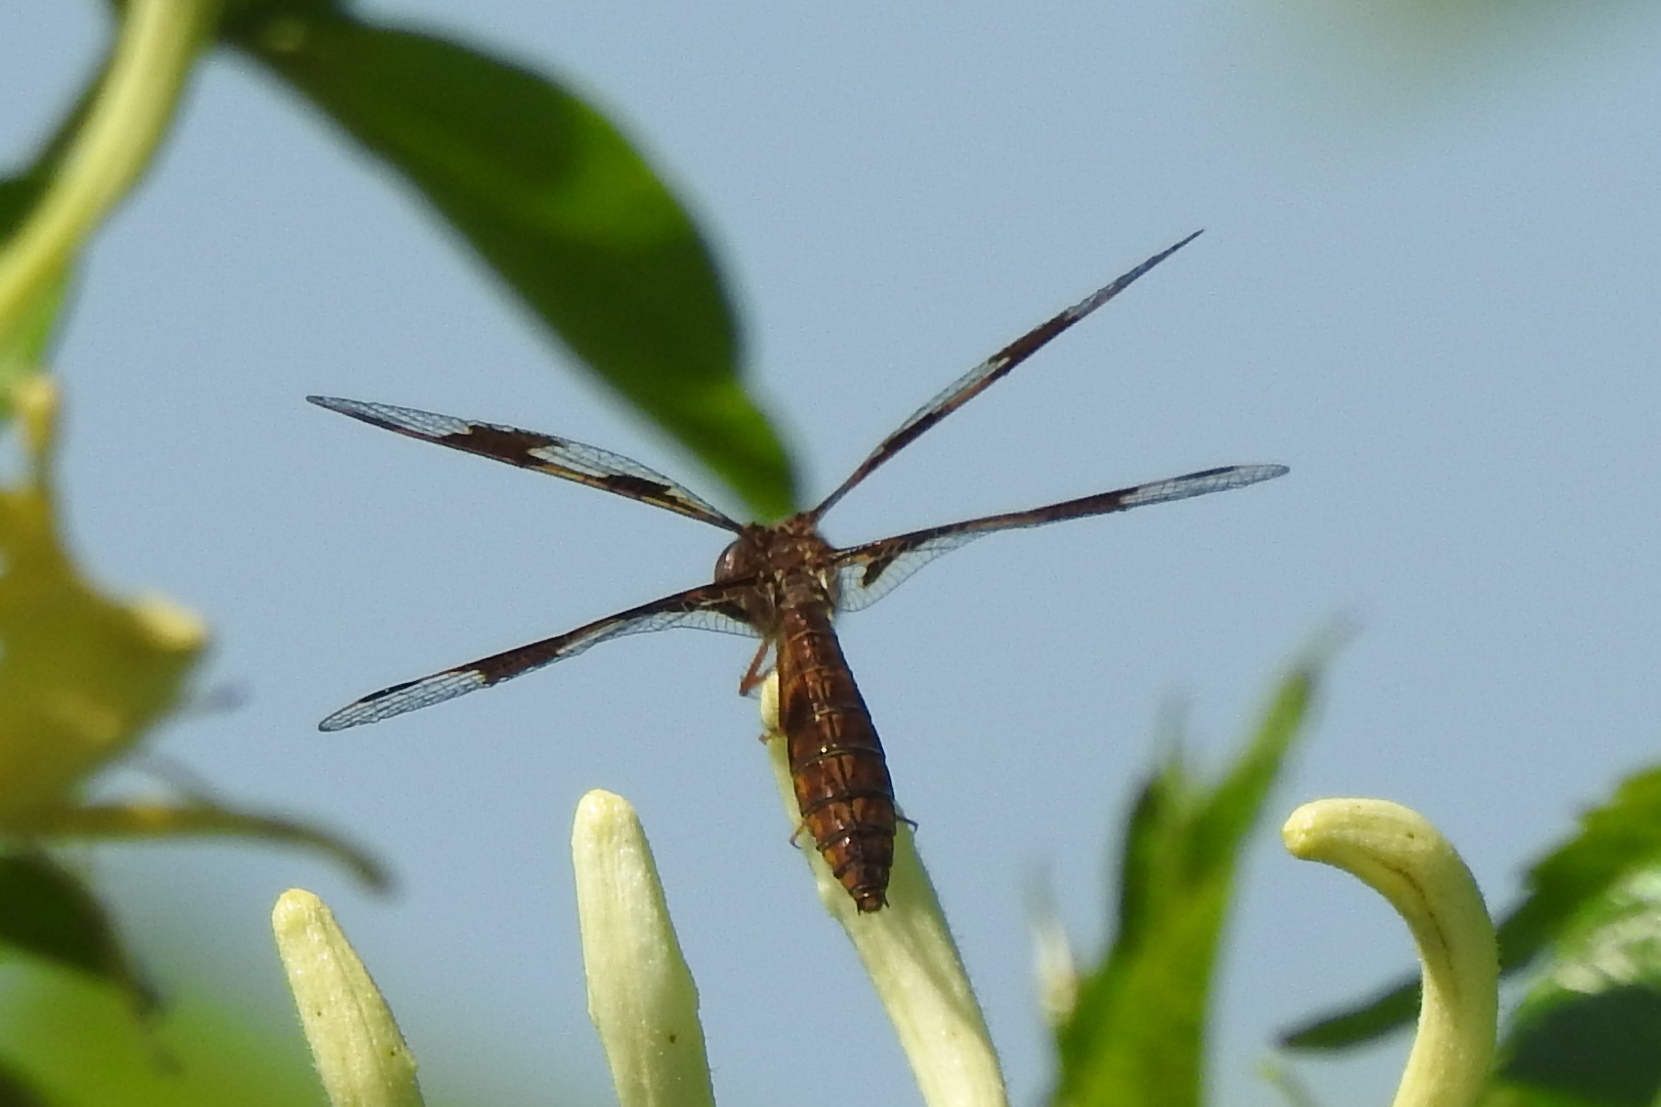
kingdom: Animalia
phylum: Arthropoda
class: Insecta
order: Odonata
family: Libellulidae
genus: Perithemis
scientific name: Perithemis tenera
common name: Eastern amberwing
